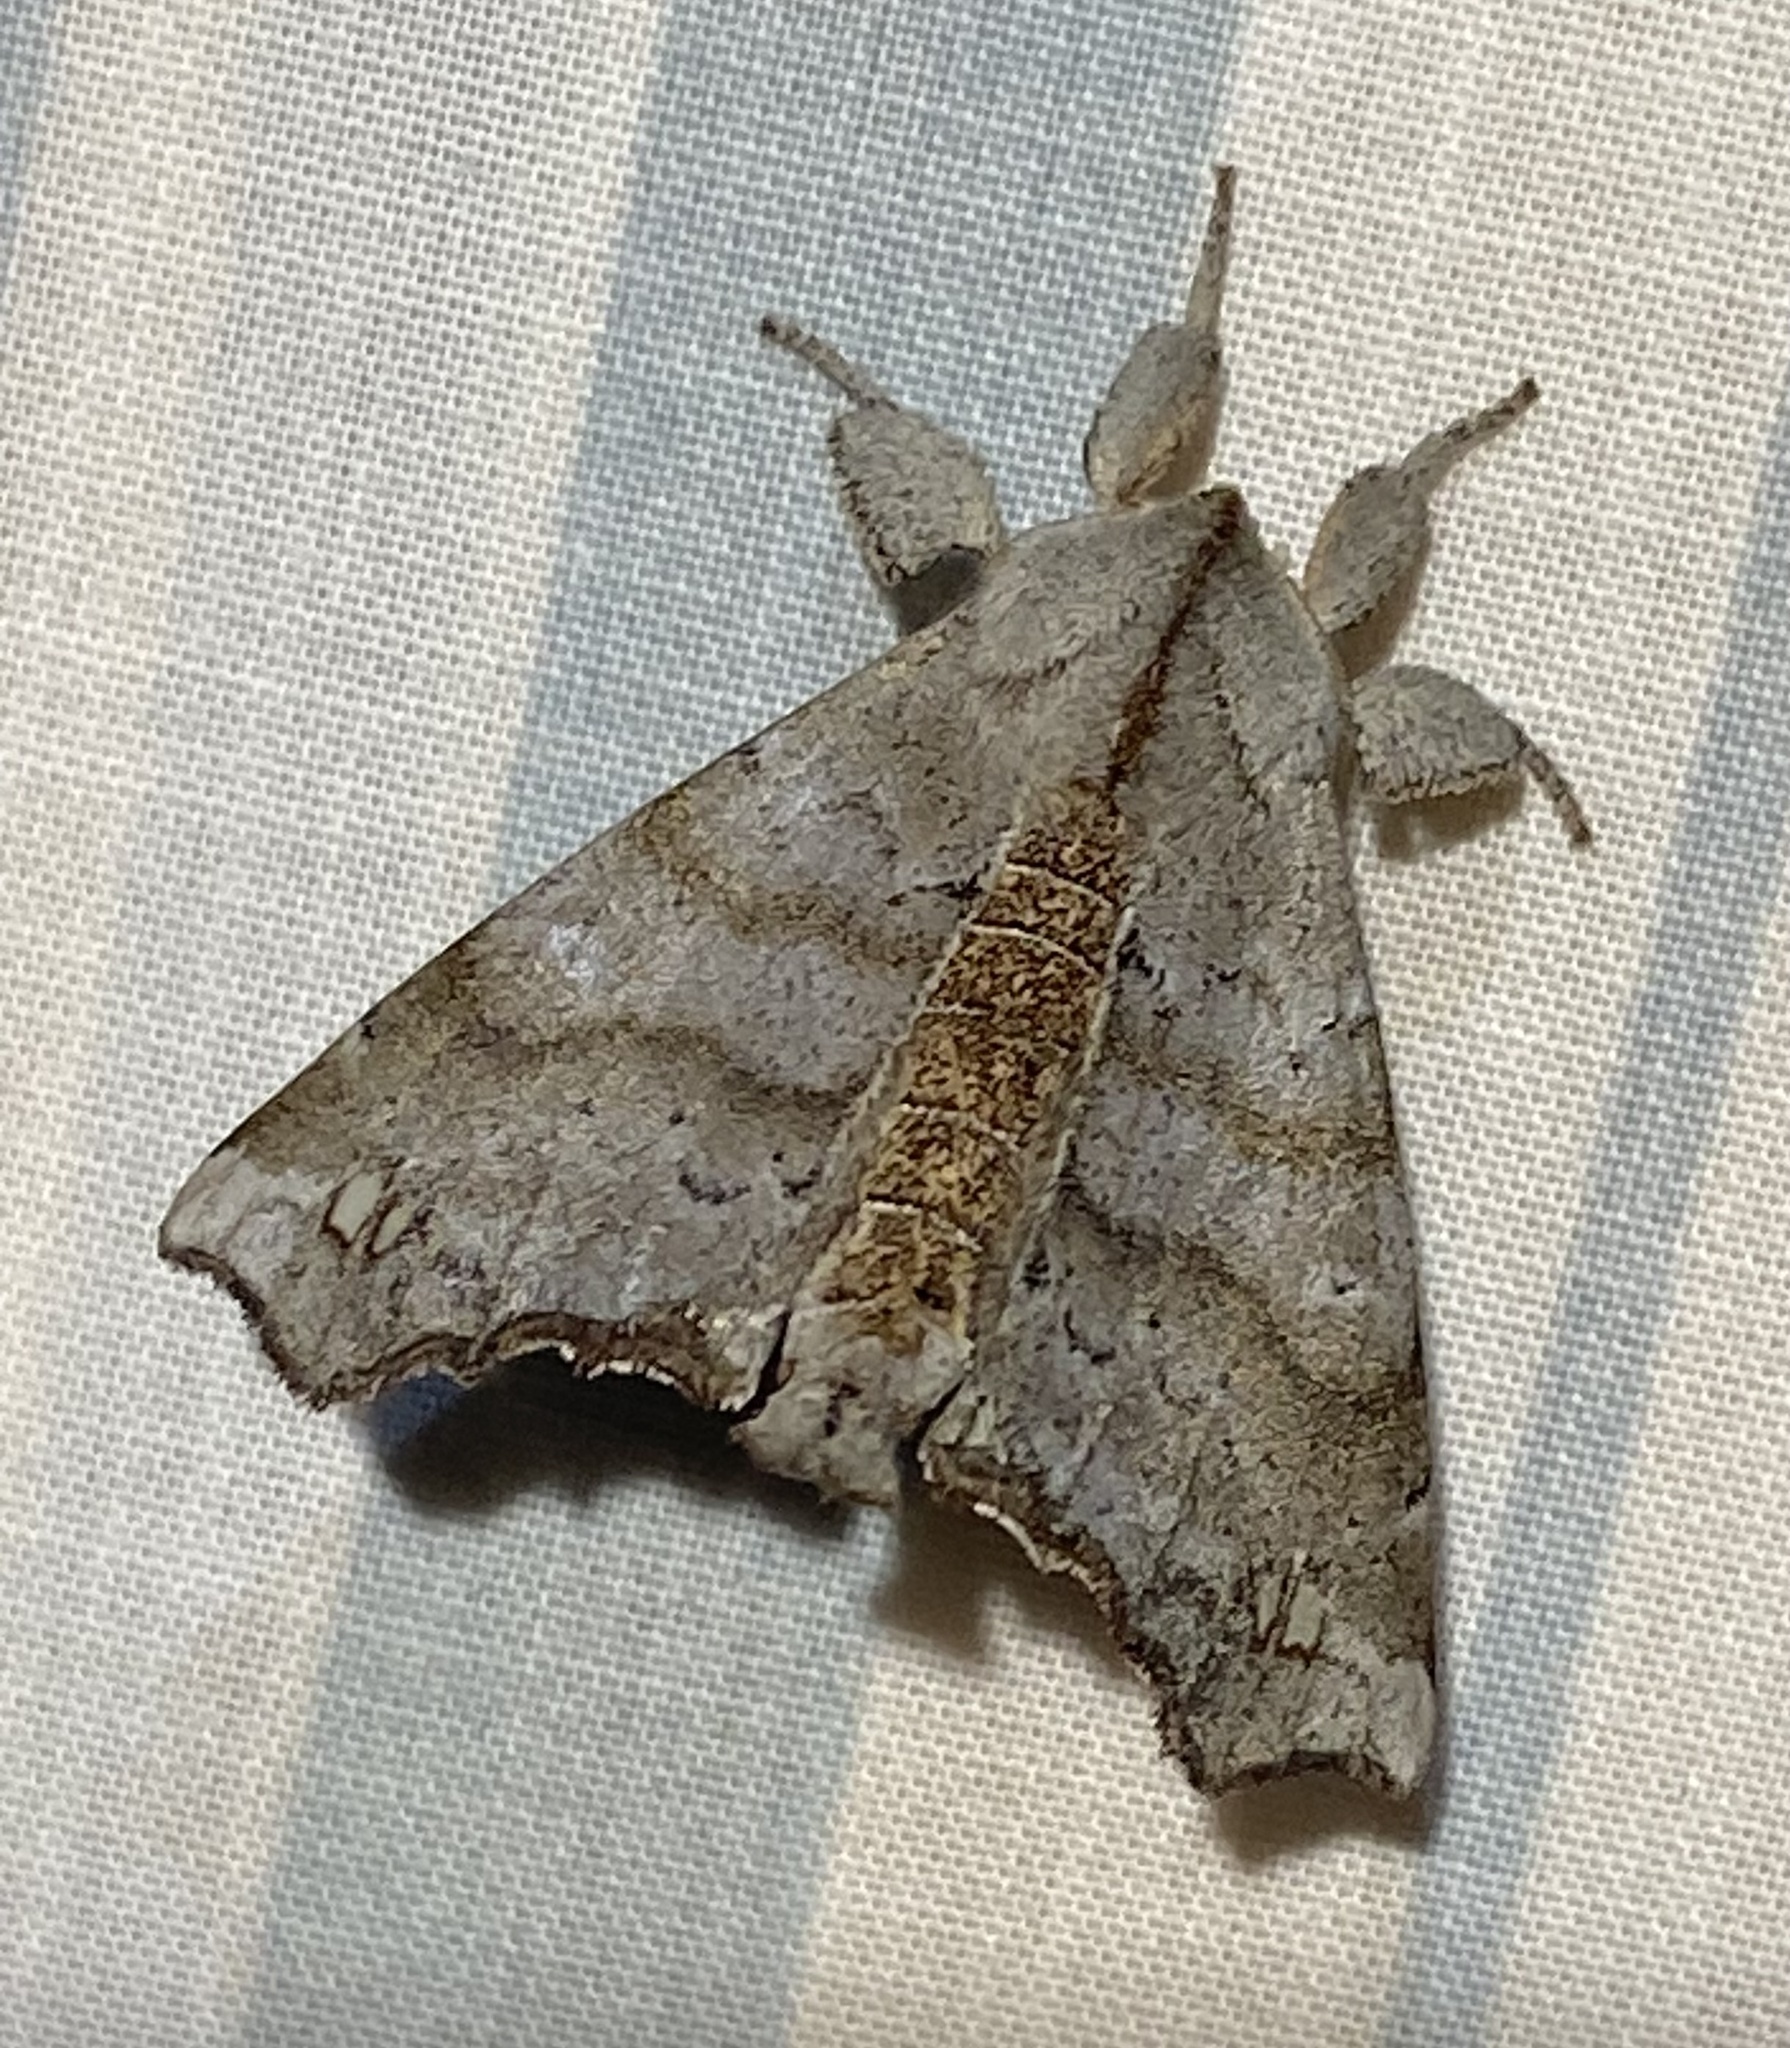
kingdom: Animalia
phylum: Arthropoda
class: Insecta
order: Lepidoptera
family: Apatelodidae
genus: Olceclostera
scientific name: Olceclostera angelica
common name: Angel moth
